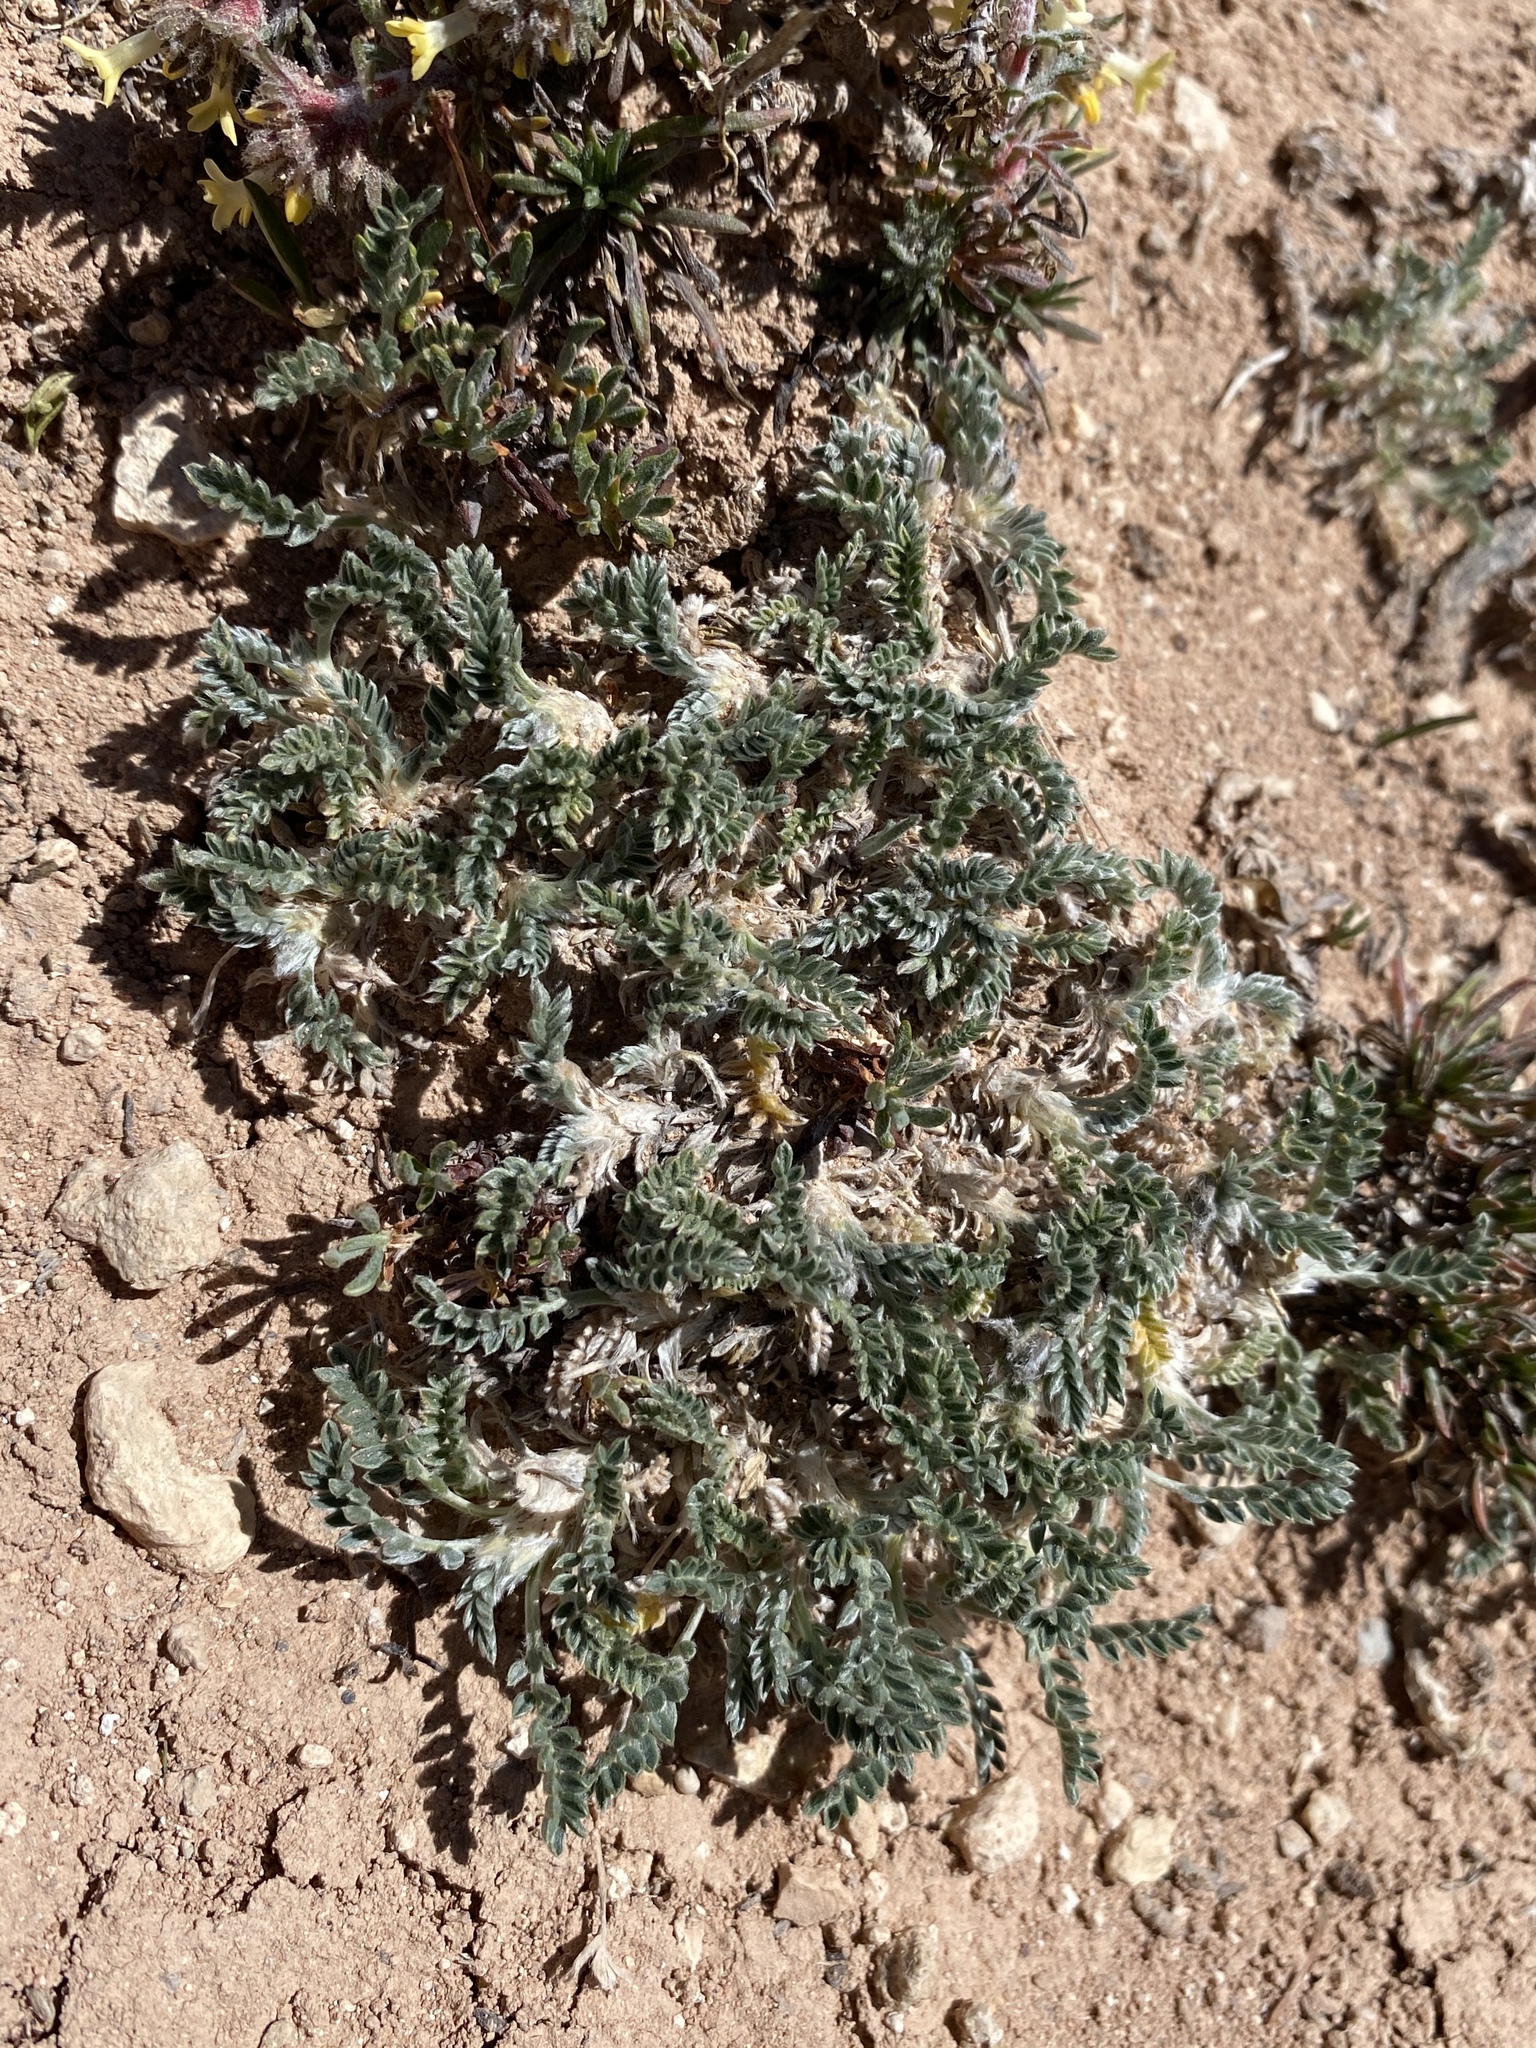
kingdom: Plantae
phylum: Tracheophyta
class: Magnoliopsida
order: Fabales
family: Fabaceae
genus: Oxytropis
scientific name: Oxytropis oreophila
